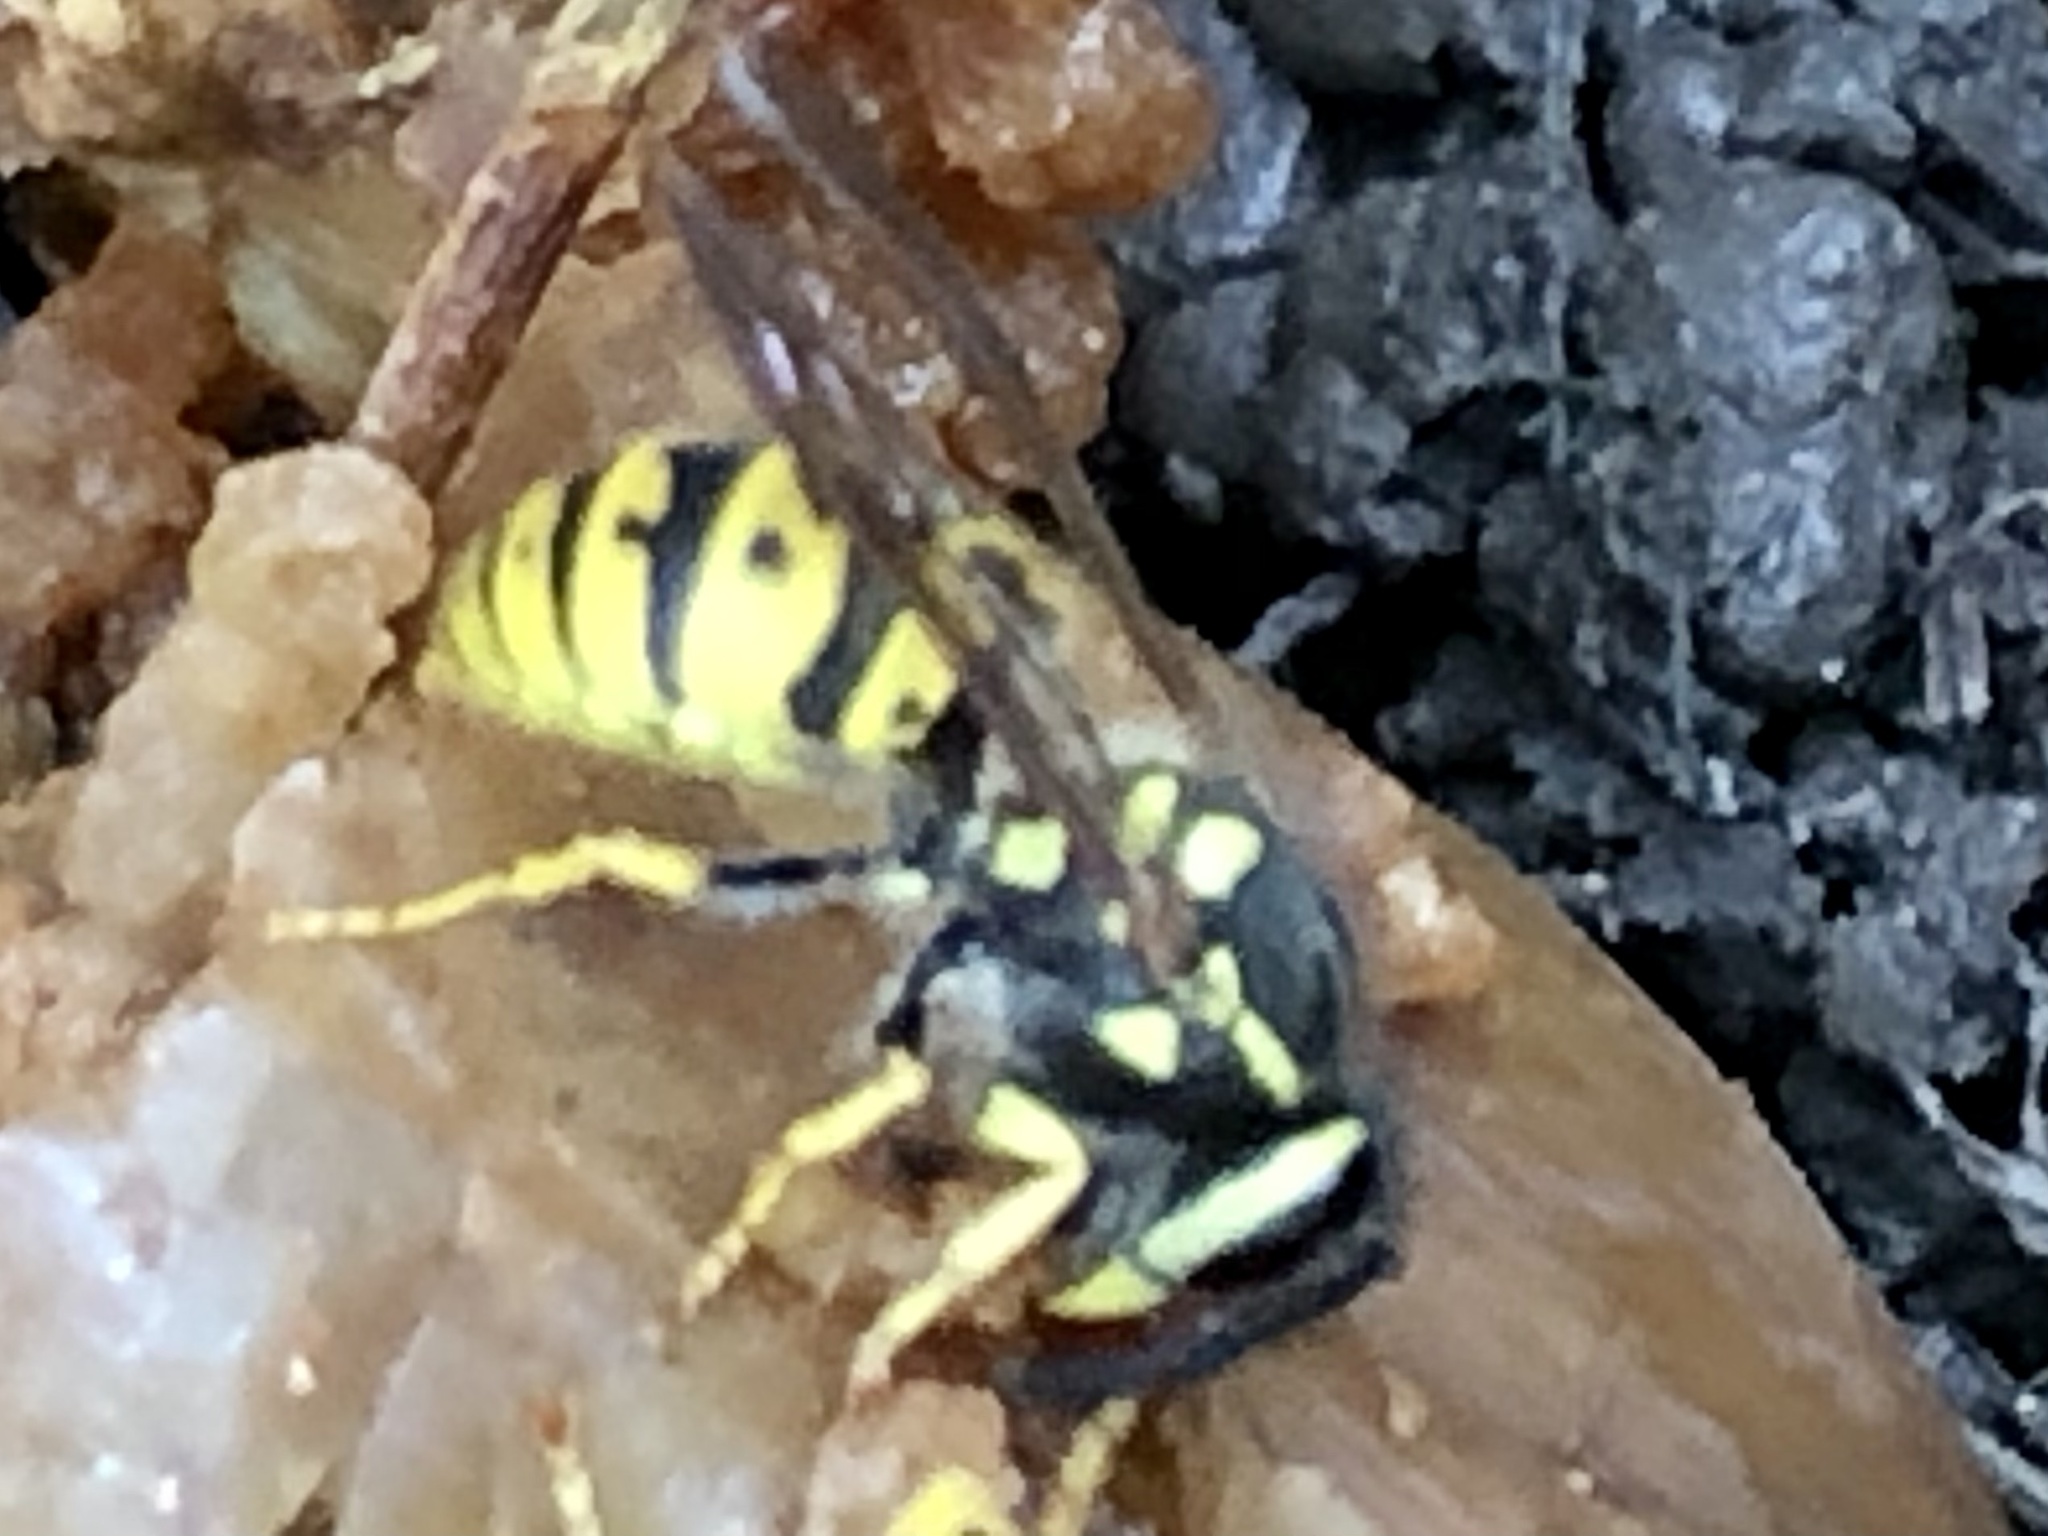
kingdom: Animalia
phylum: Arthropoda
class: Insecta
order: Hymenoptera
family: Vespidae
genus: Vespula
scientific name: Vespula germanica
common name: German wasp
